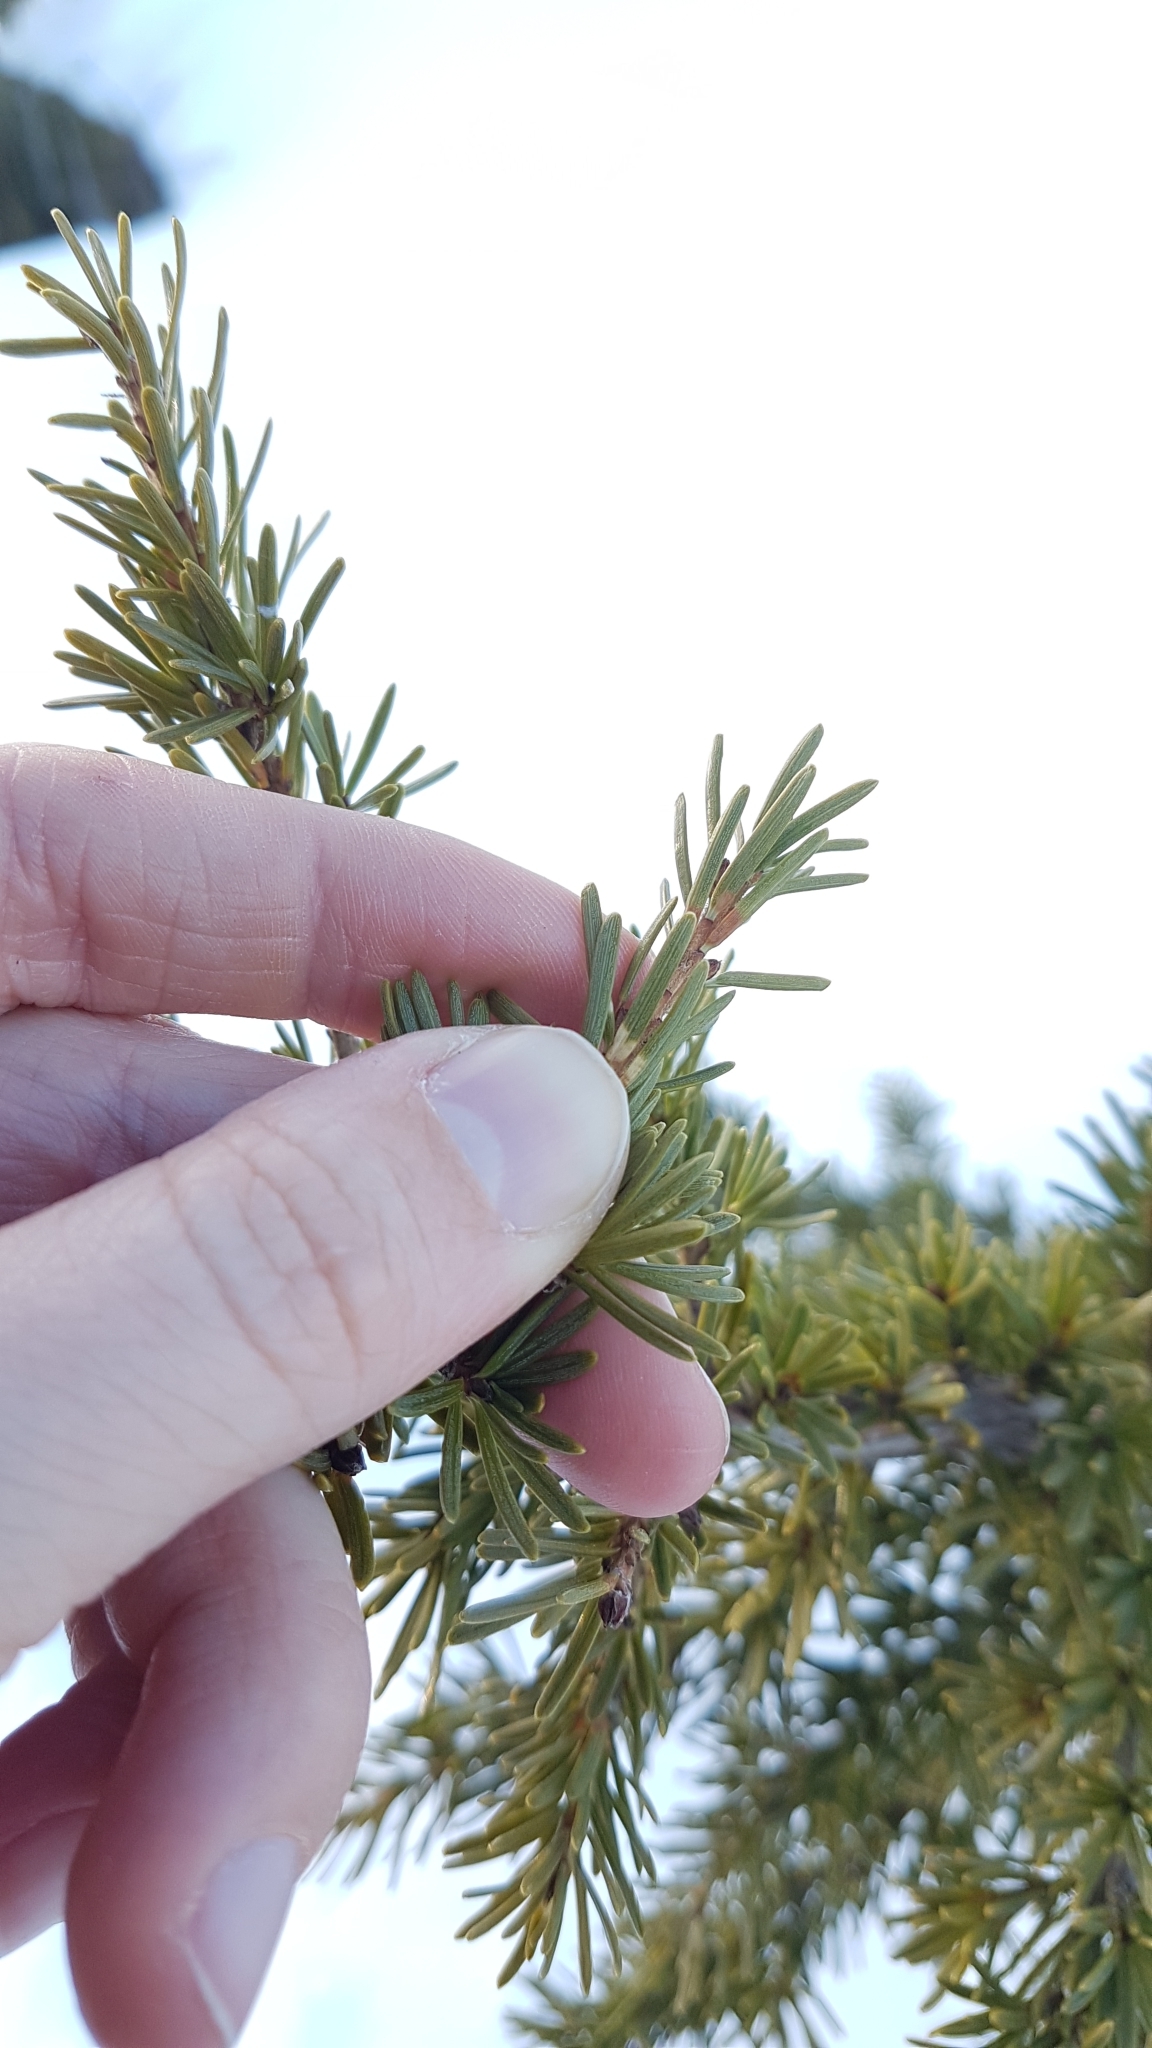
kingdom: Plantae
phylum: Tracheophyta
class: Pinopsida
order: Pinales
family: Pinaceae
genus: Tsuga
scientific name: Tsuga mertensiana
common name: Mountain hemlock
